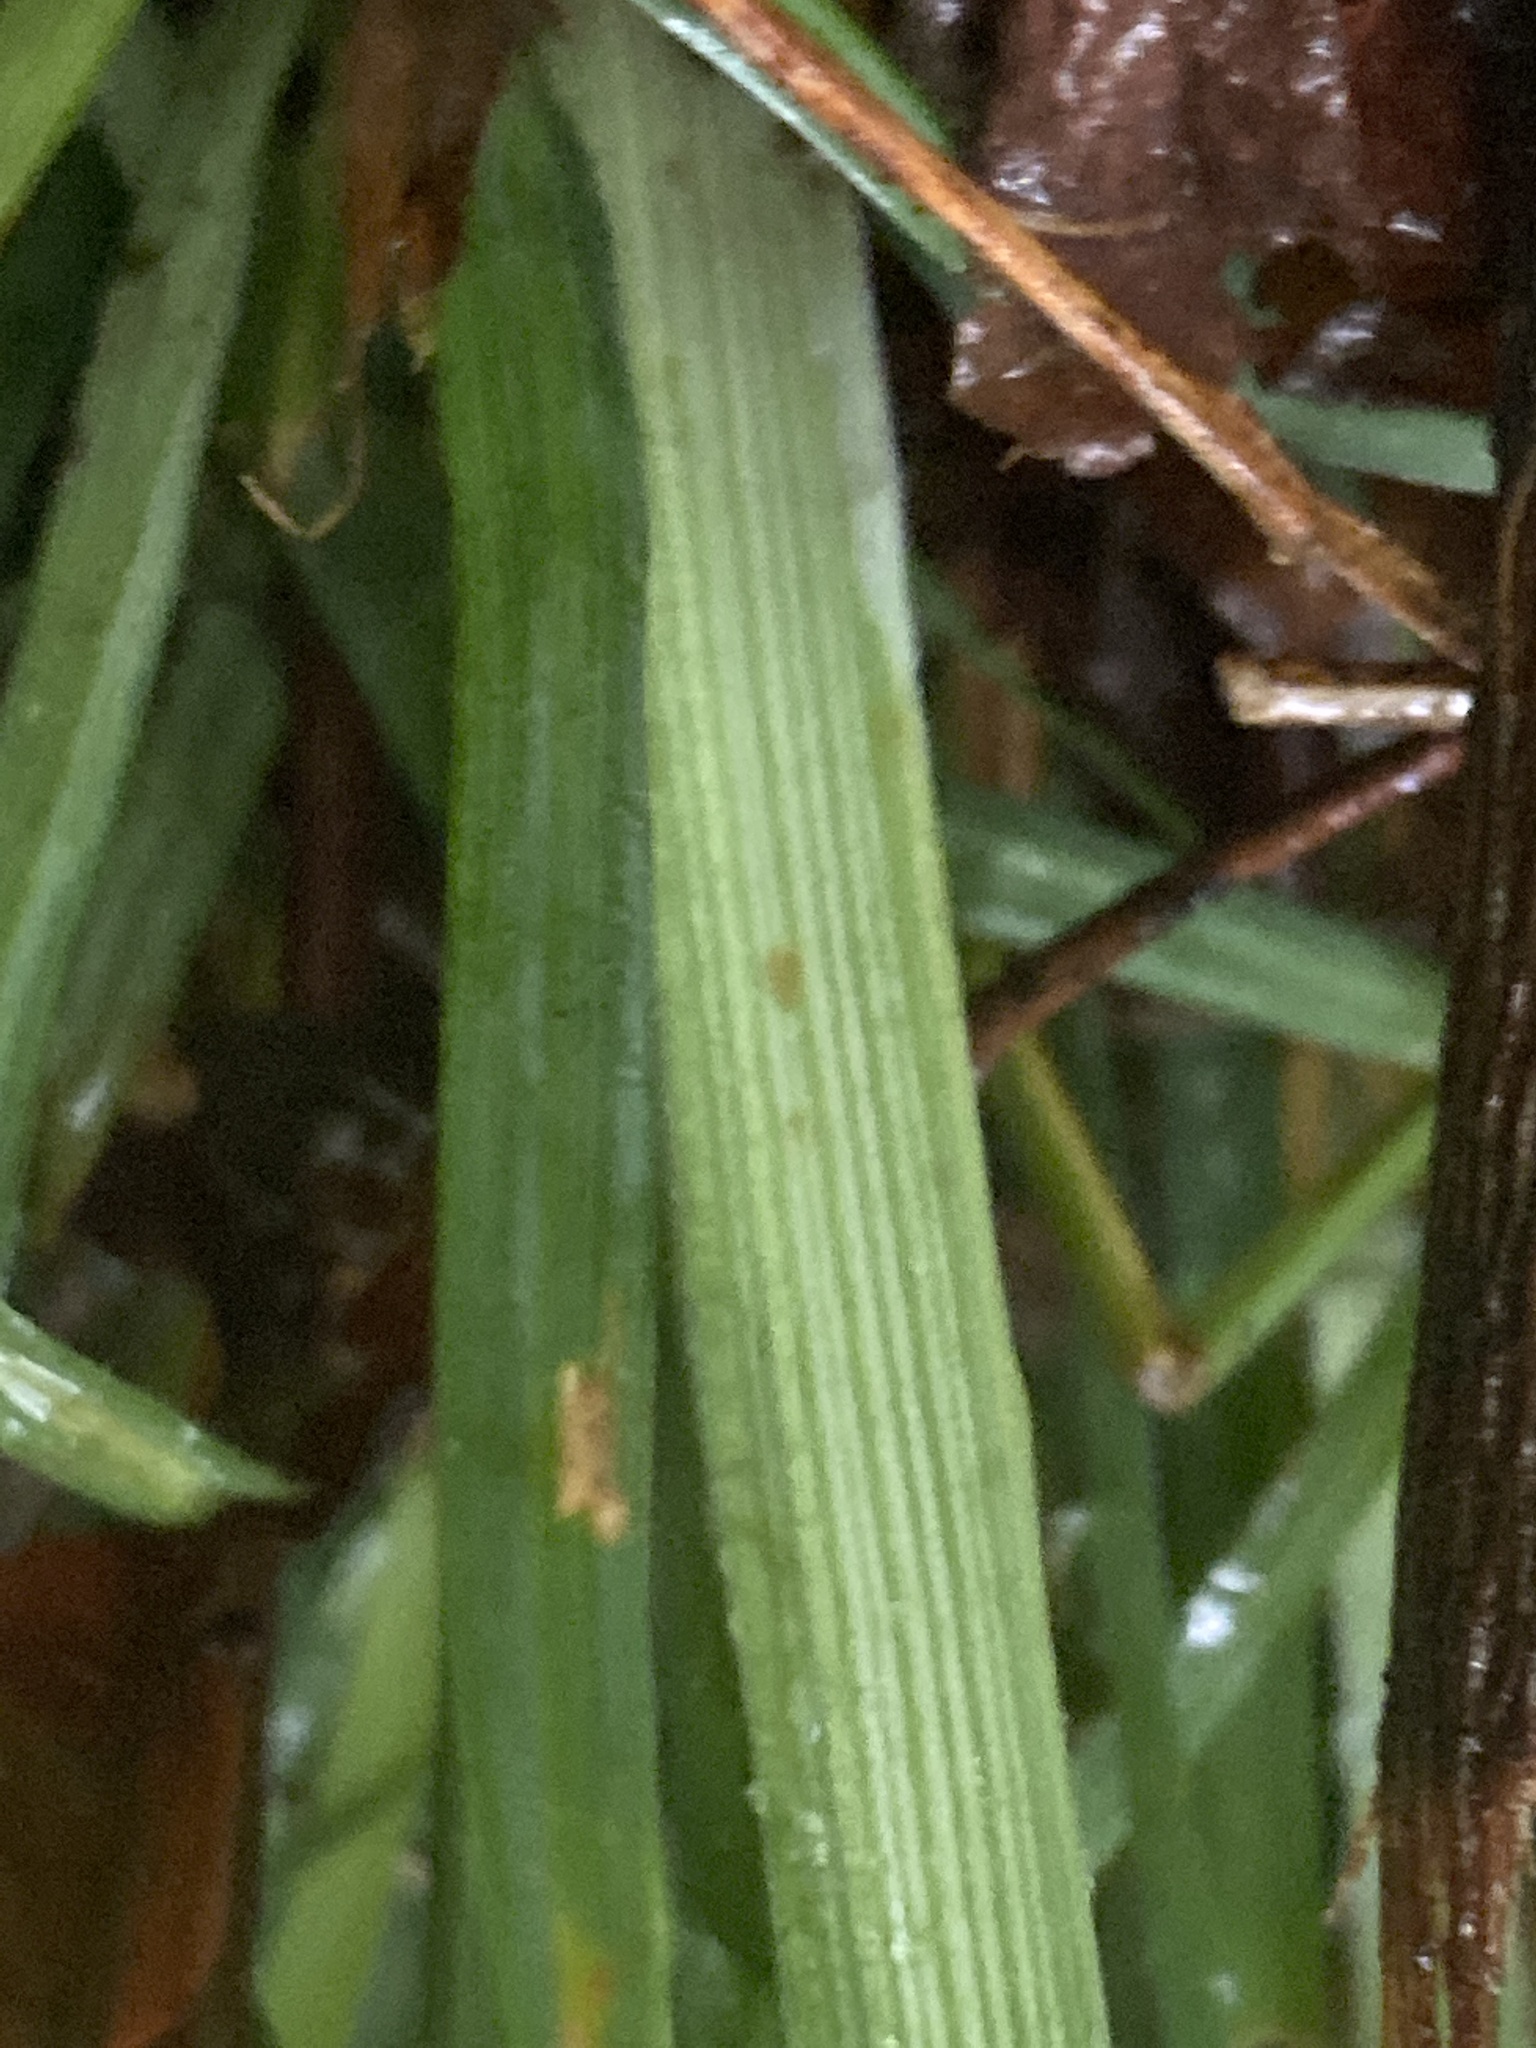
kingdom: Plantae
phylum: Tracheophyta
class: Liliopsida
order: Poales
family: Cyperaceae
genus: Carex
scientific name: Carex radfordii
